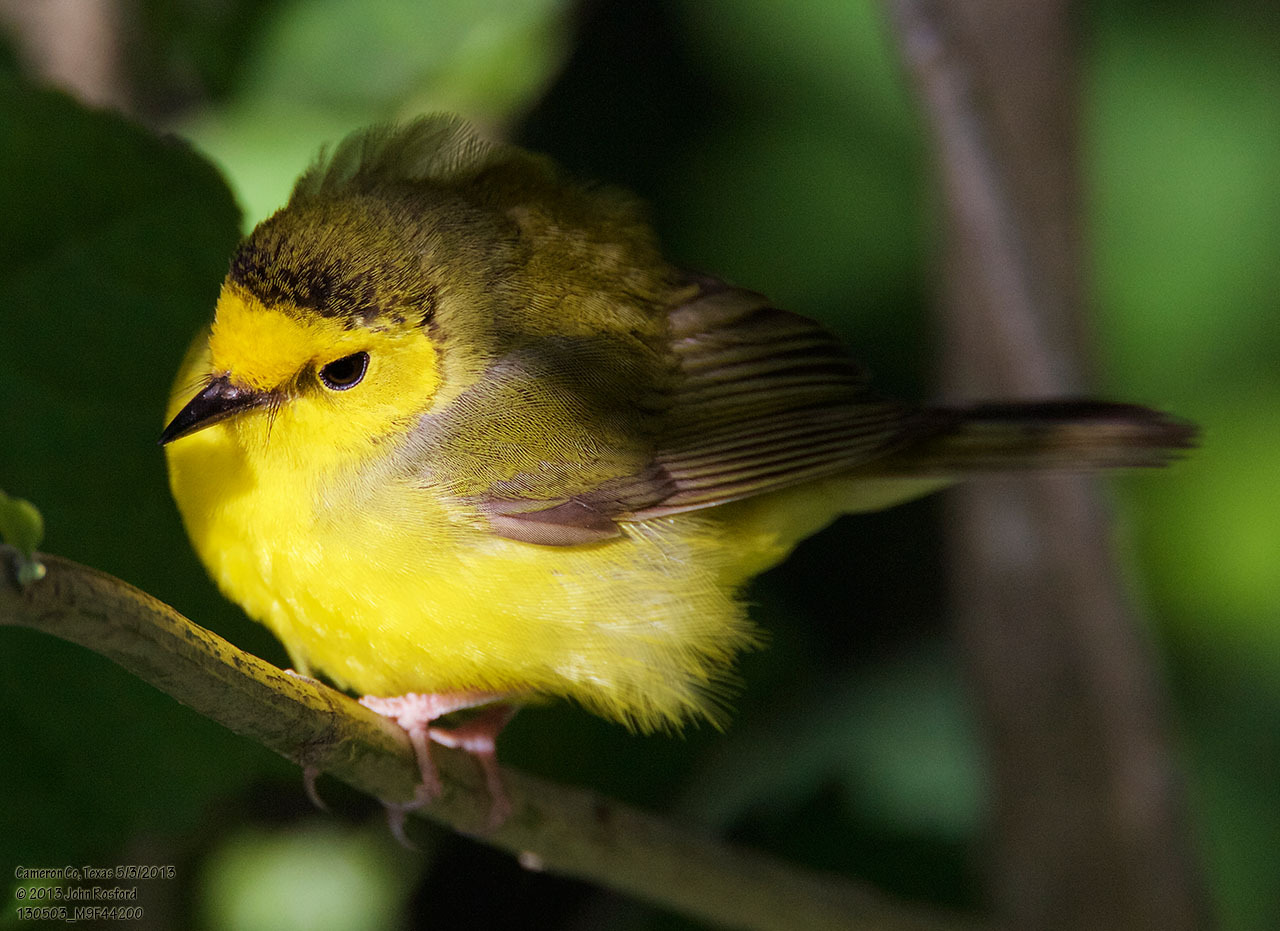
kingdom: Animalia
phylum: Chordata
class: Aves
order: Passeriformes
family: Parulidae
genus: Setophaga
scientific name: Setophaga citrina
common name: Hooded warbler
